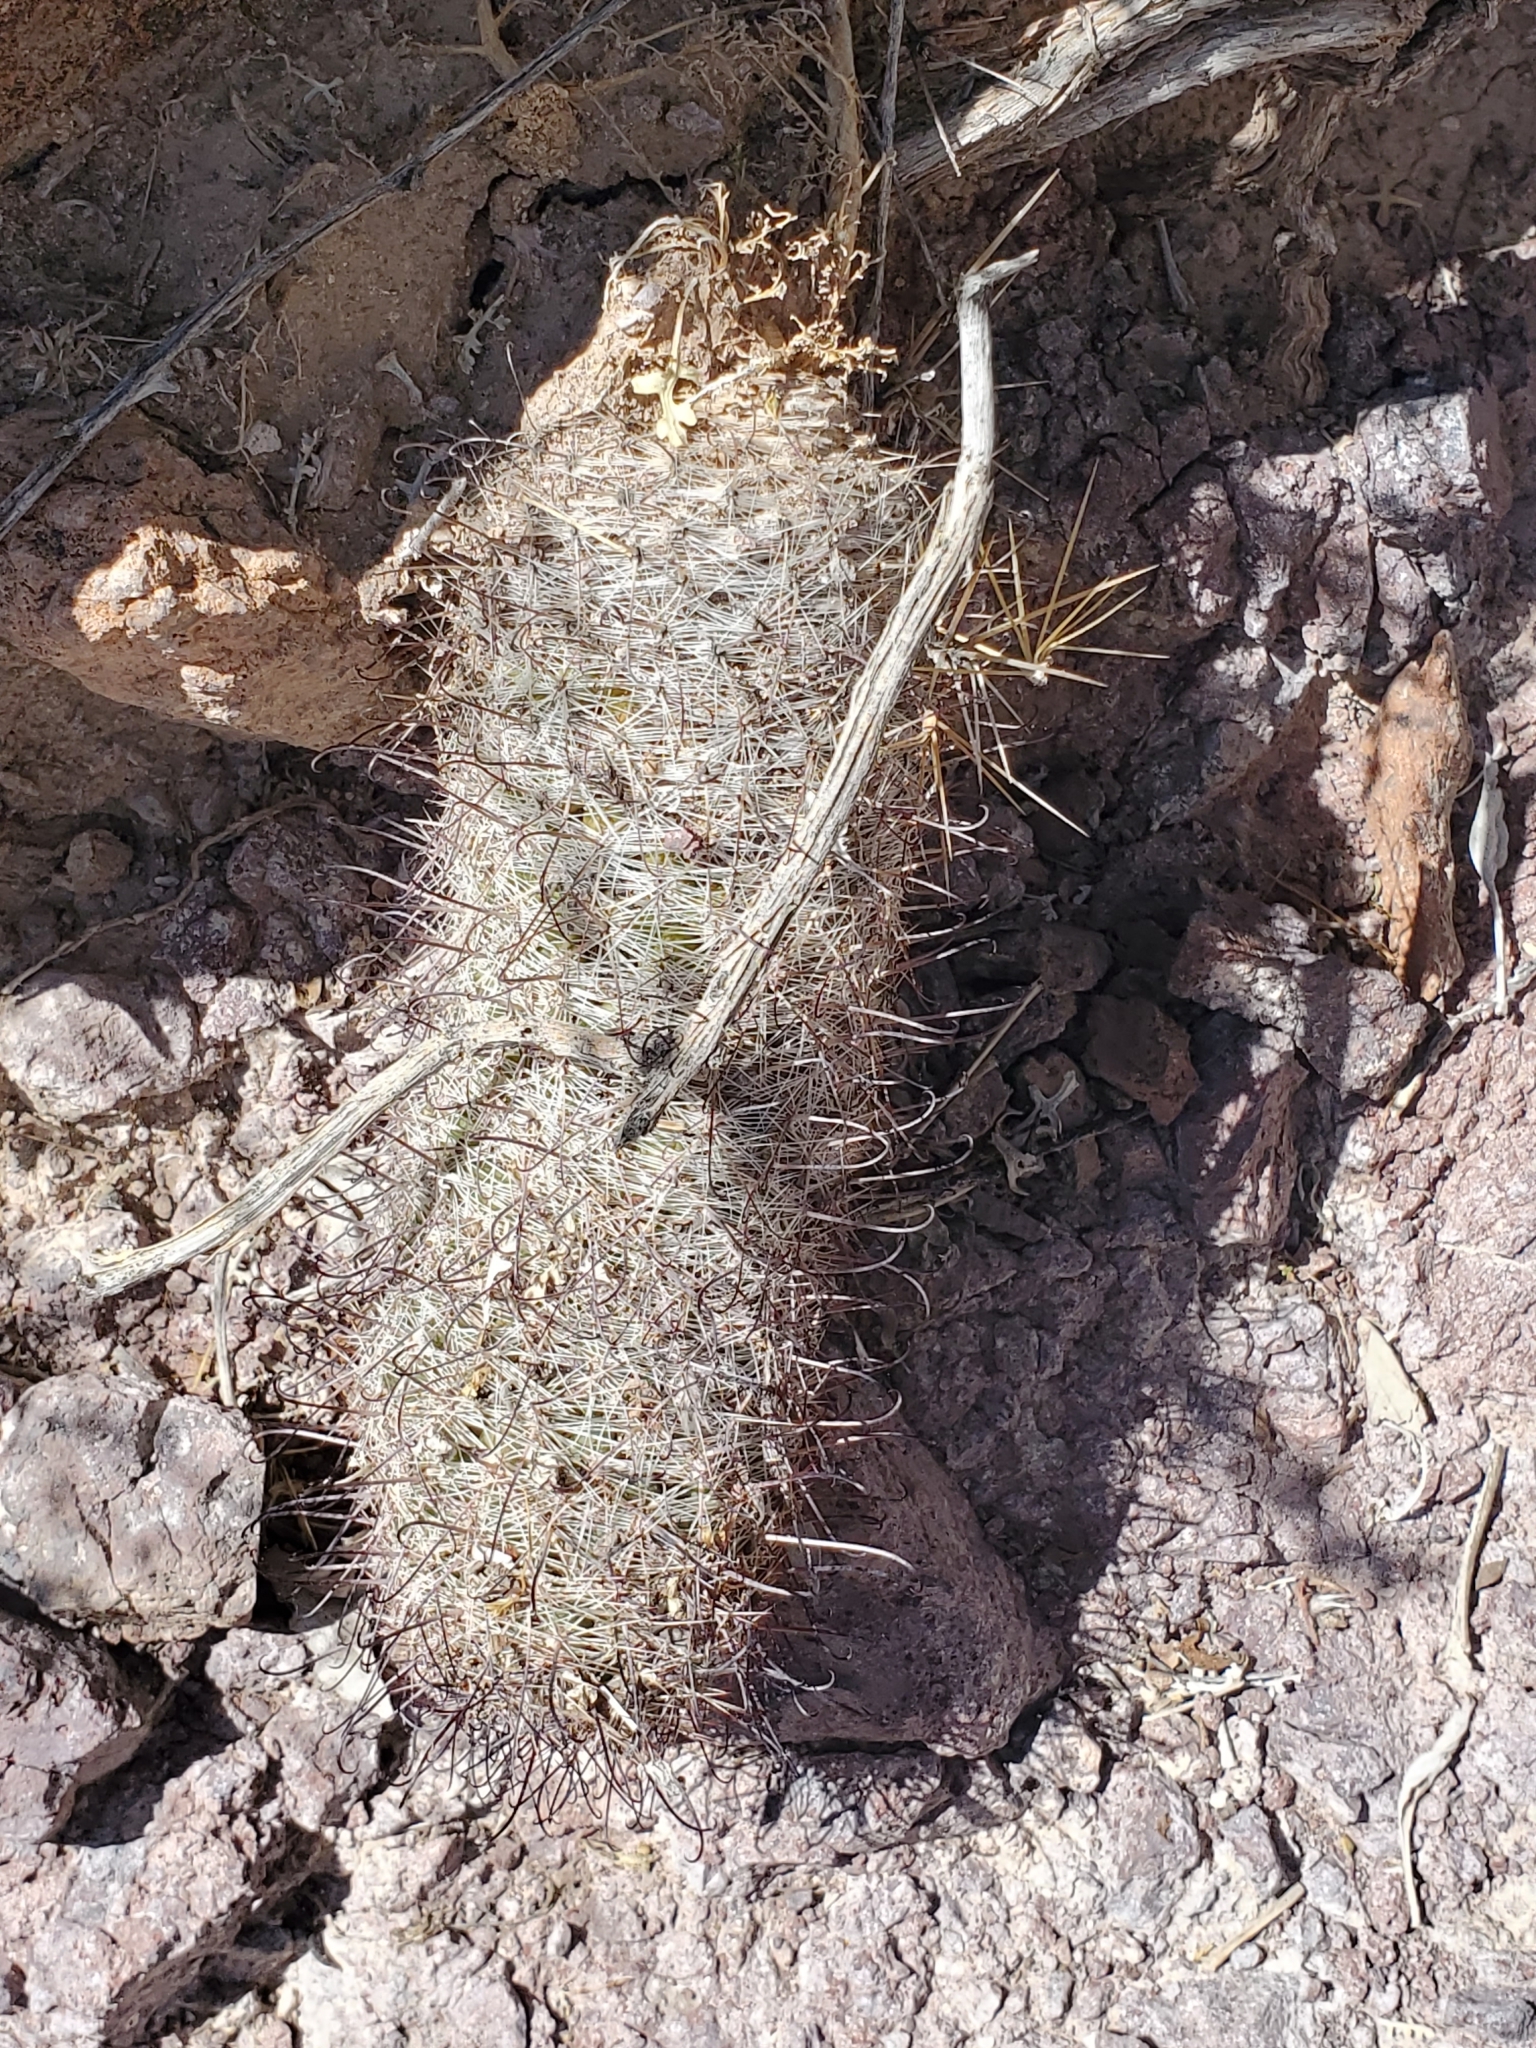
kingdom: Plantae
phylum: Tracheophyta
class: Magnoliopsida
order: Caryophyllales
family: Cactaceae
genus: Cochemiea
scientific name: Cochemiea grahamii
